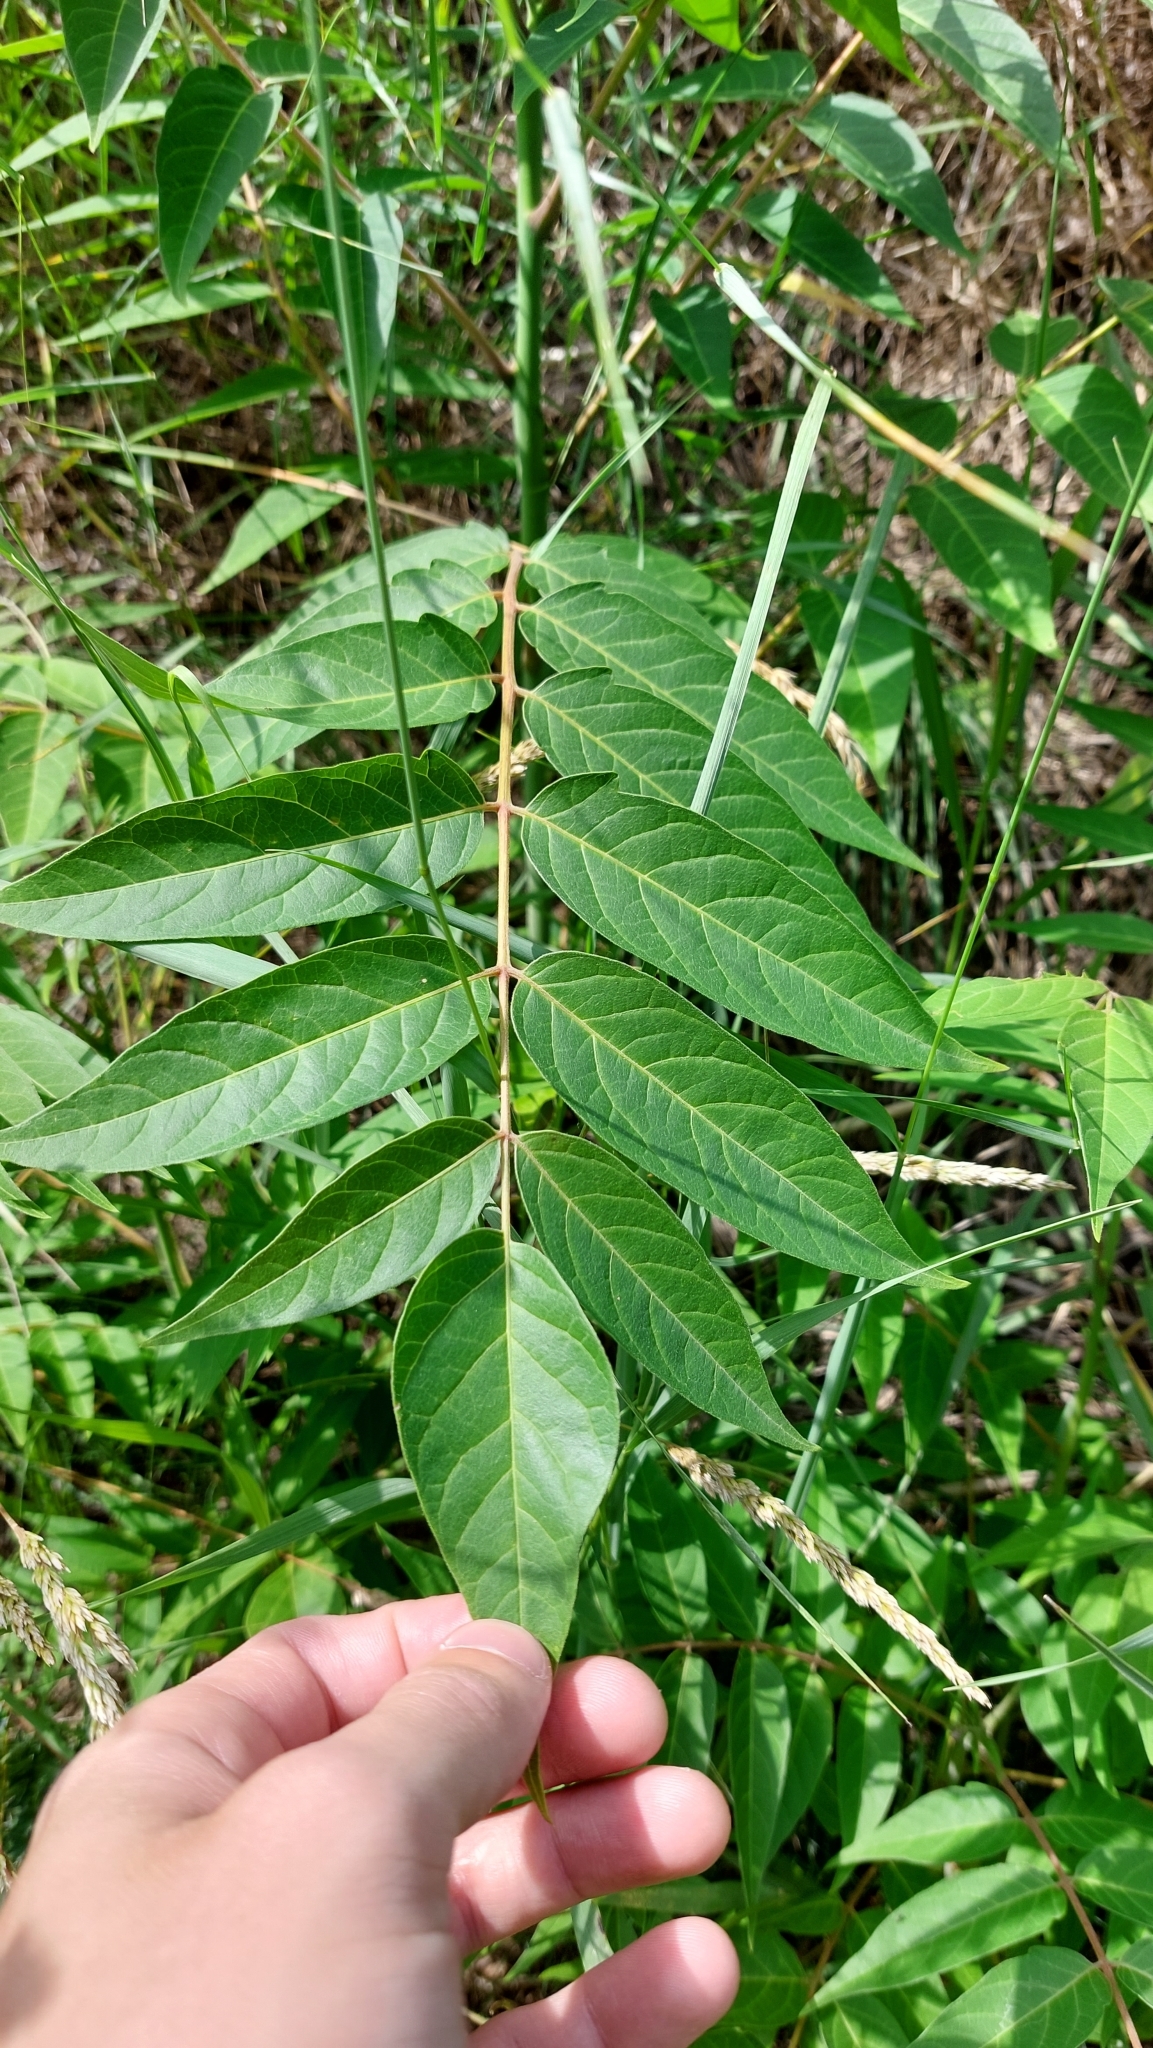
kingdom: Plantae
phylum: Tracheophyta
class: Magnoliopsida
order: Sapindales
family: Simaroubaceae
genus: Ailanthus
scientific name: Ailanthus altissima
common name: Tree-of-heaven
